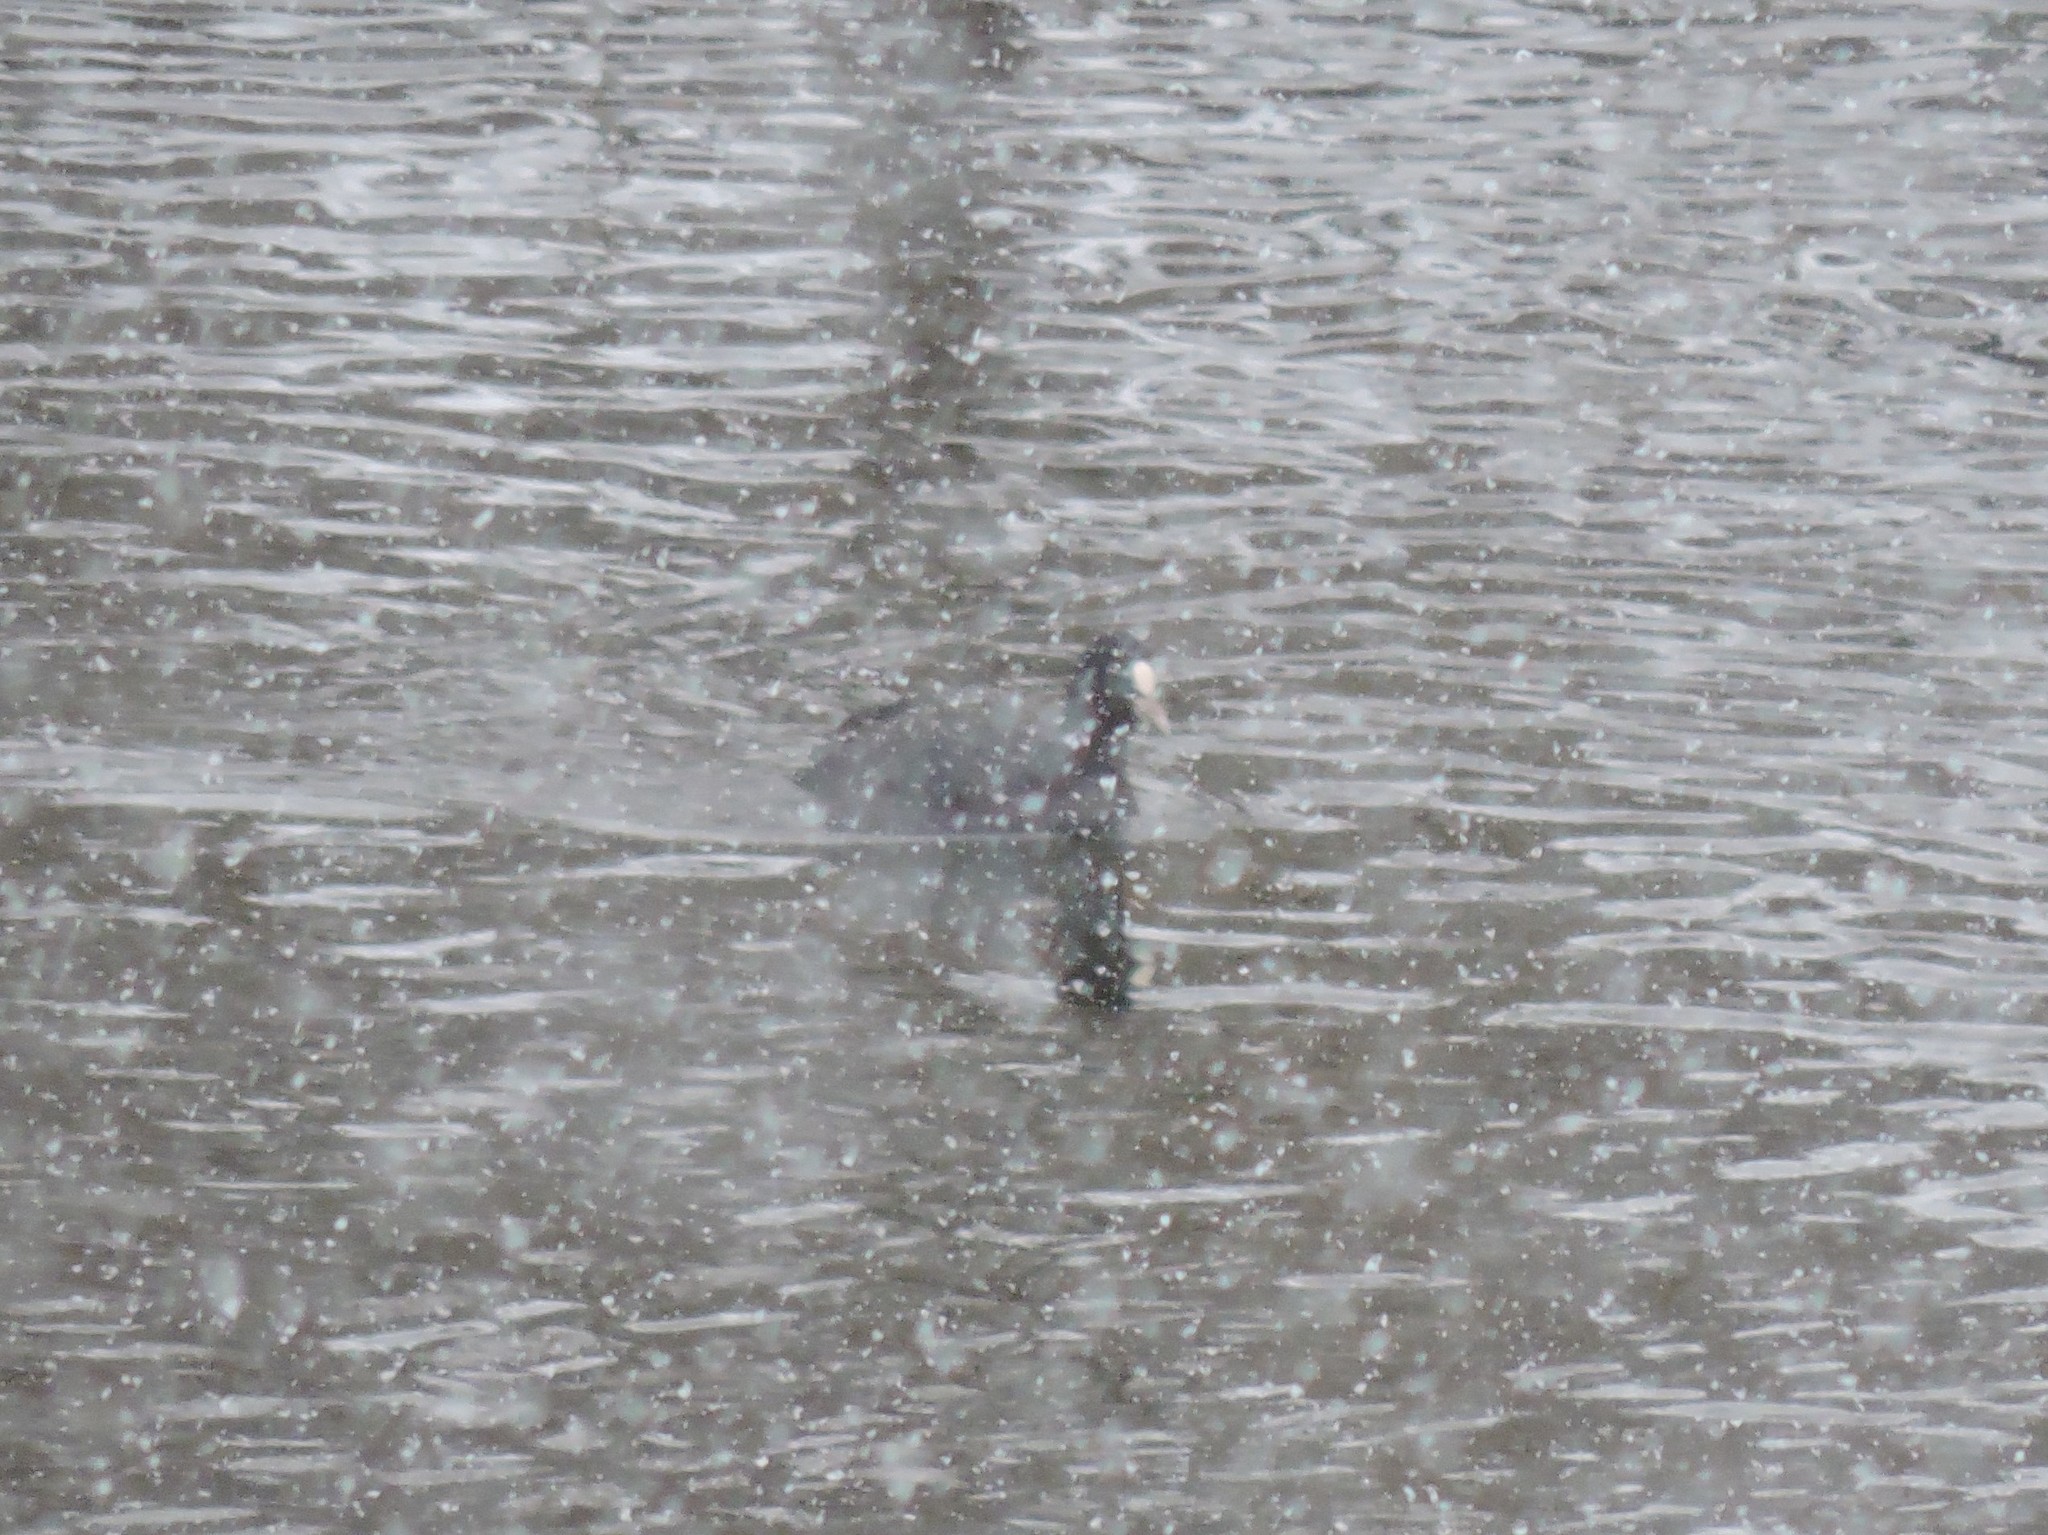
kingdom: Animalia
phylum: Chordata
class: Aves
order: Gruiformes
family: Rallidae
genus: Fulica
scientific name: Fulica atra
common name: Eurasian coot
